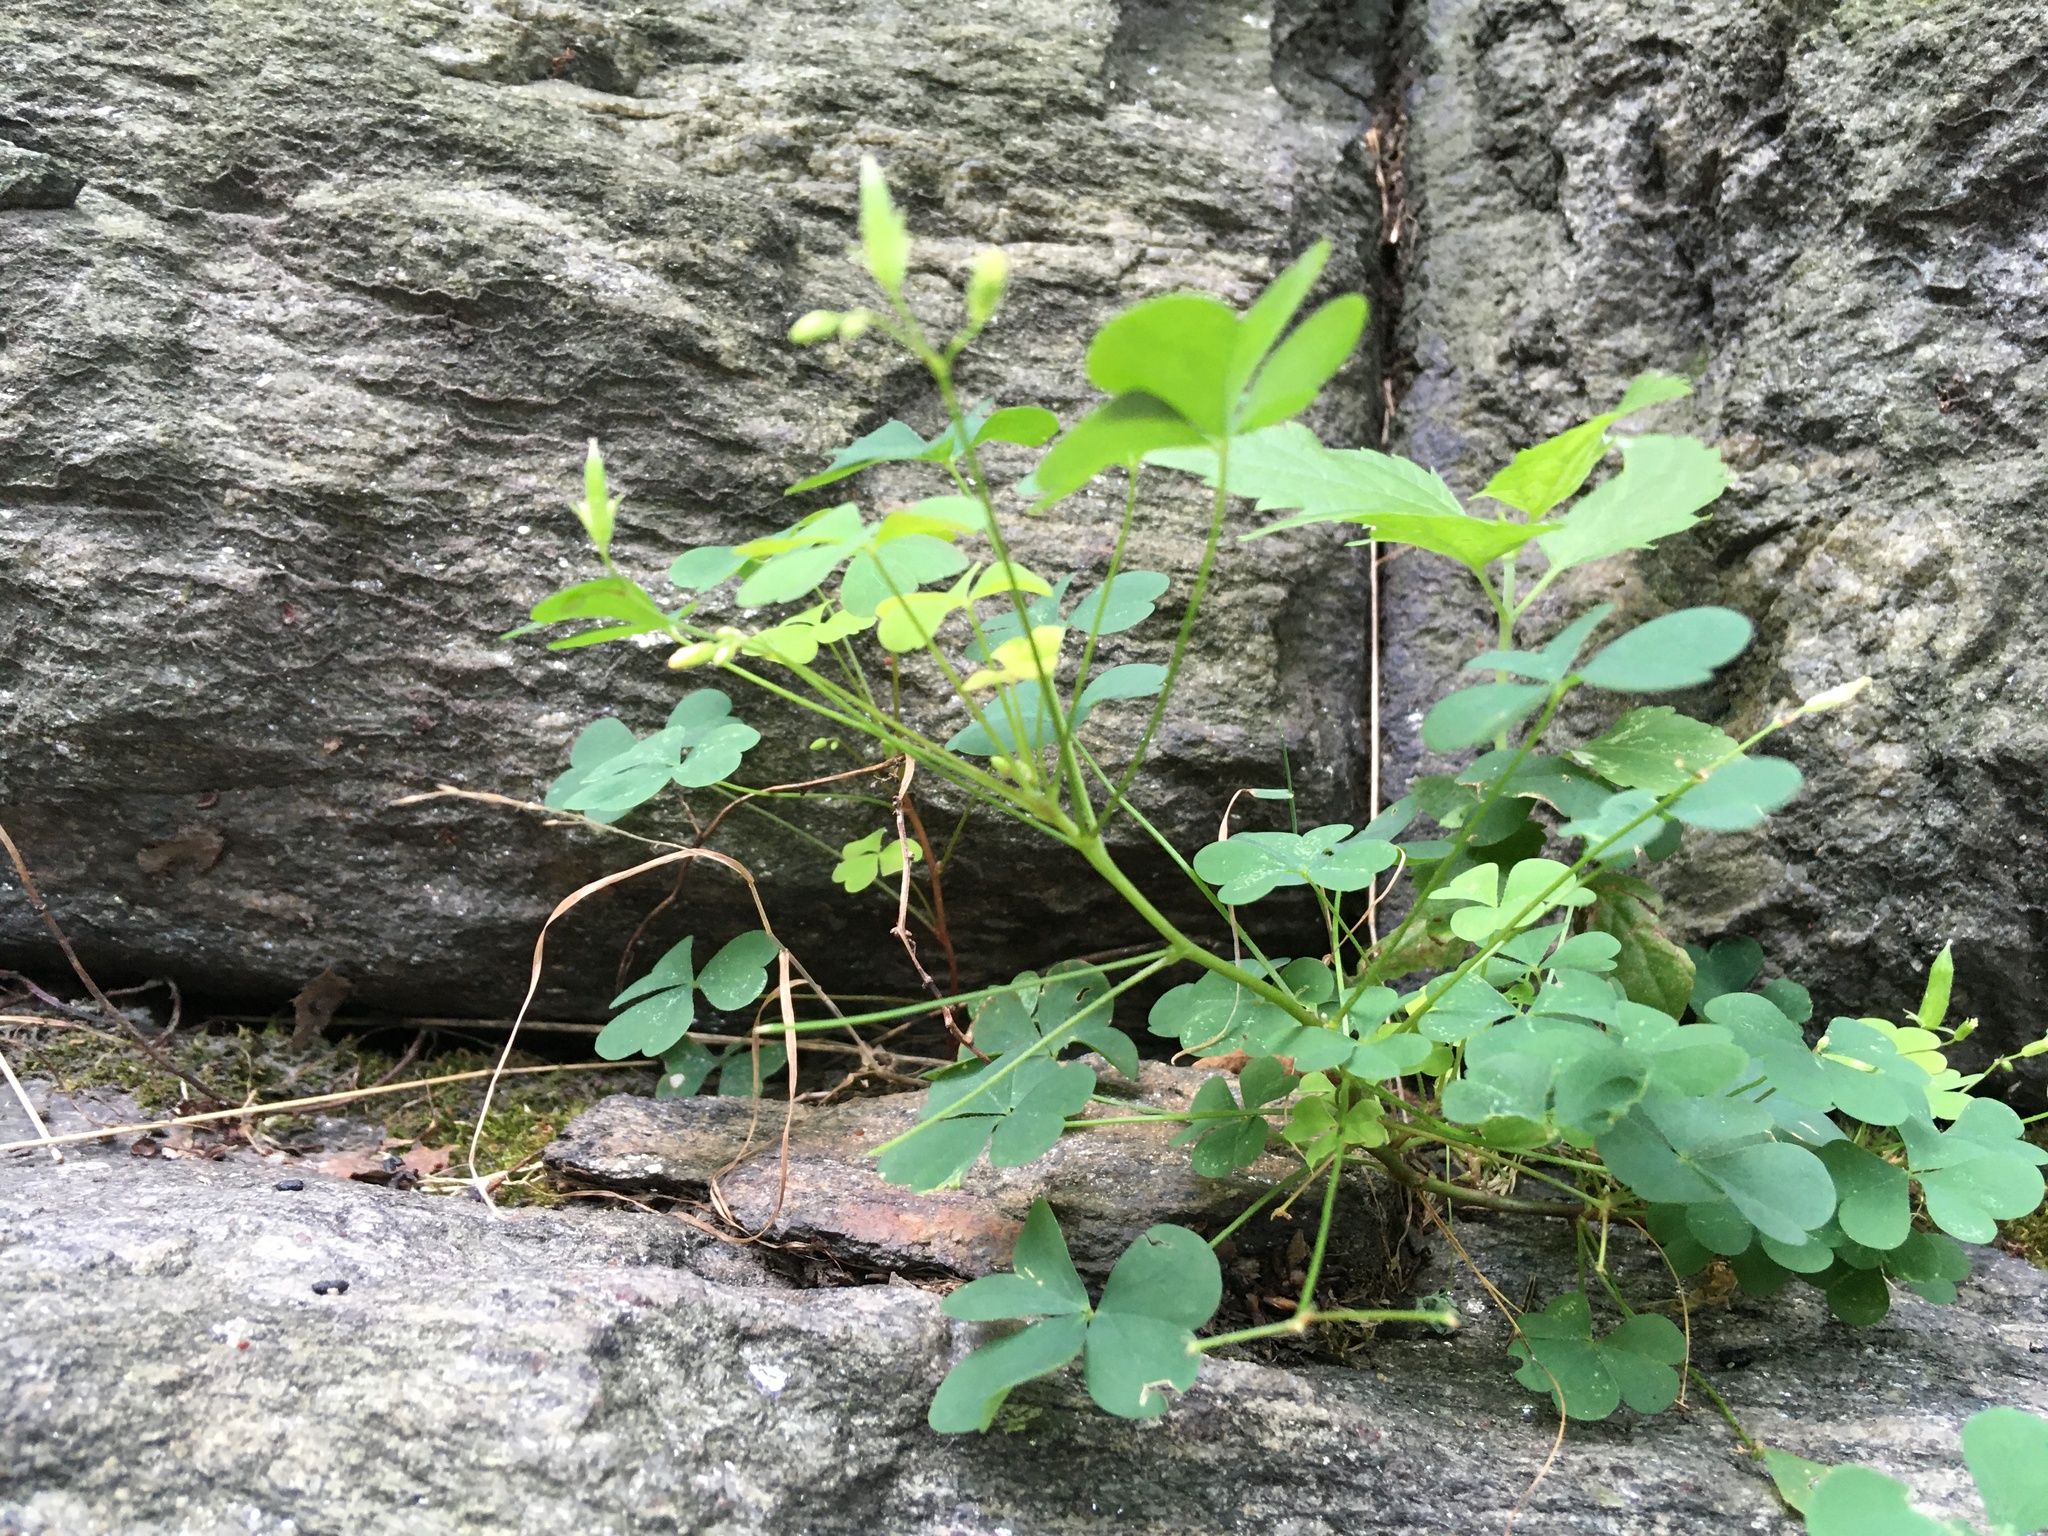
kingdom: Plantae
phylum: Tracheophyta
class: Magnoliopsida
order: Oxalidales
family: Oxalidaceae
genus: Oxalis
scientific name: Oxalis corniculata
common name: Procumbent yellow-sorrel
